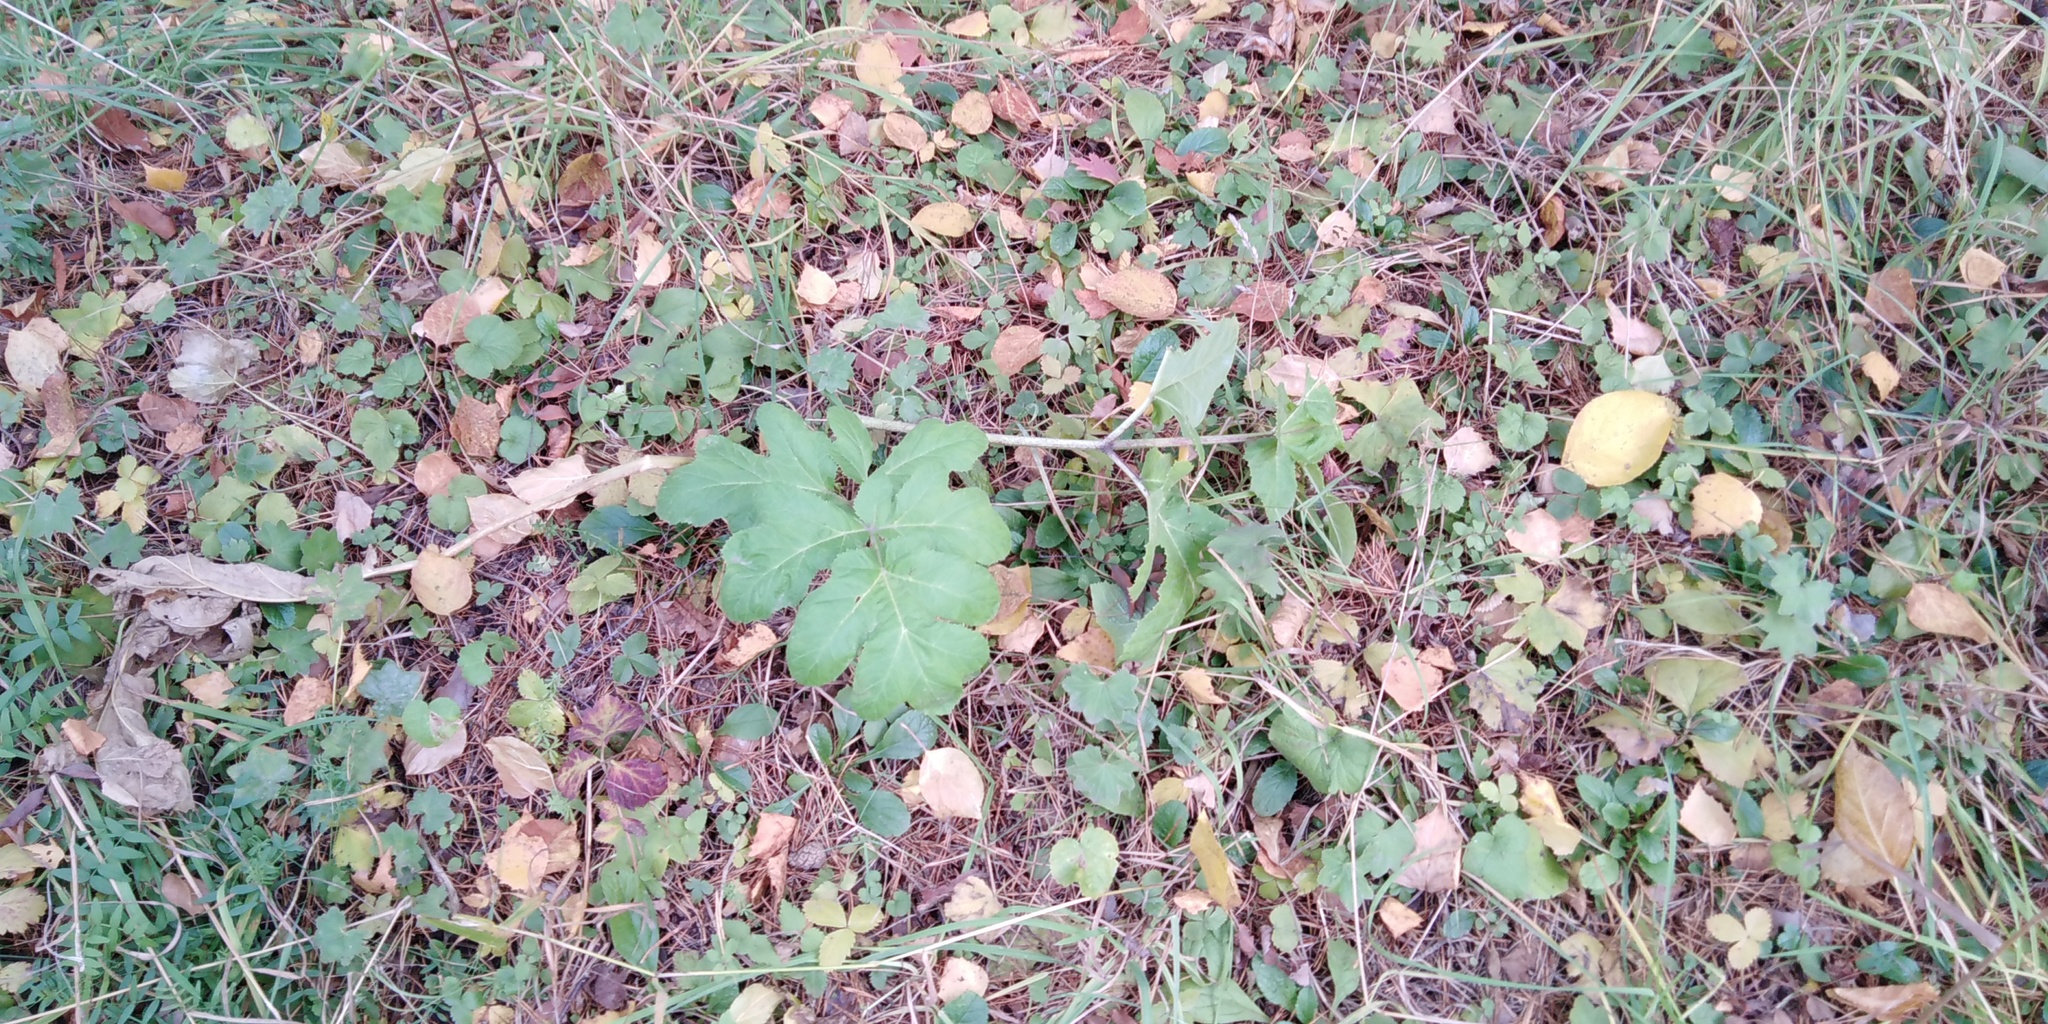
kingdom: Plantae
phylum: Tracheophyta
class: Magnoliopsida
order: Apiales
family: Apiaceae
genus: Heracleum
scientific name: Heracleum sosnowskyi
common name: Sosnowsky's hogweed
